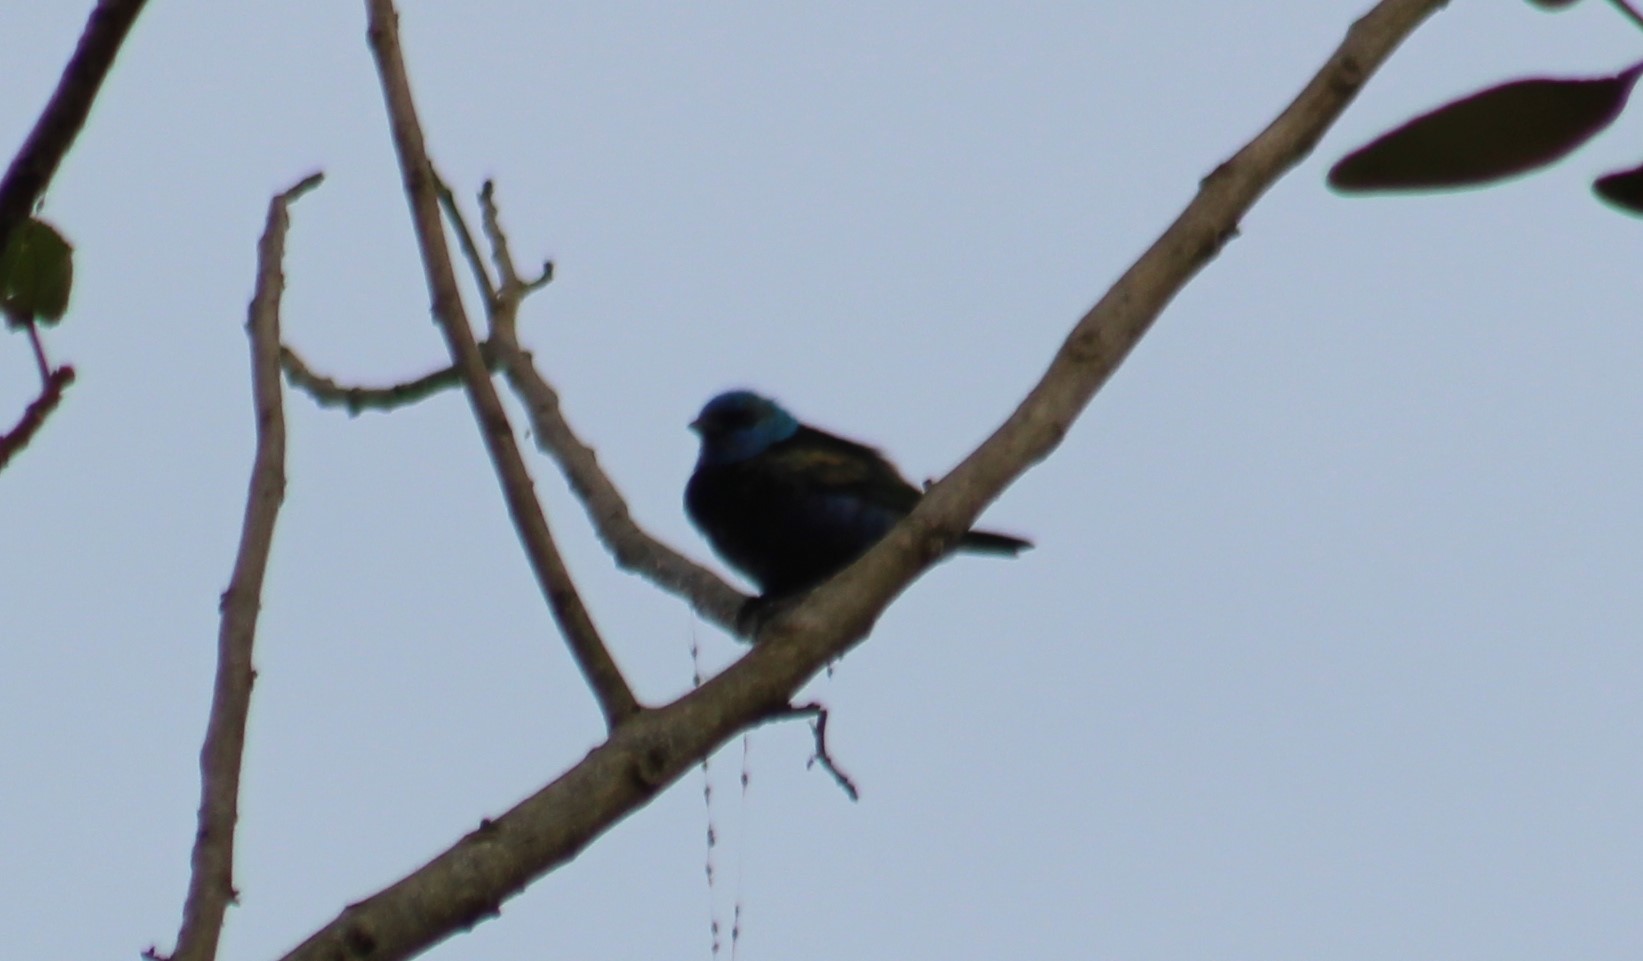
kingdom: Animalia
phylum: Chordata
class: Aves
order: Passeriformes
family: Thraupidae
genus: Stilpnia
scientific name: Stilpnia cyanicollis
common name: Blue-necked tanager
